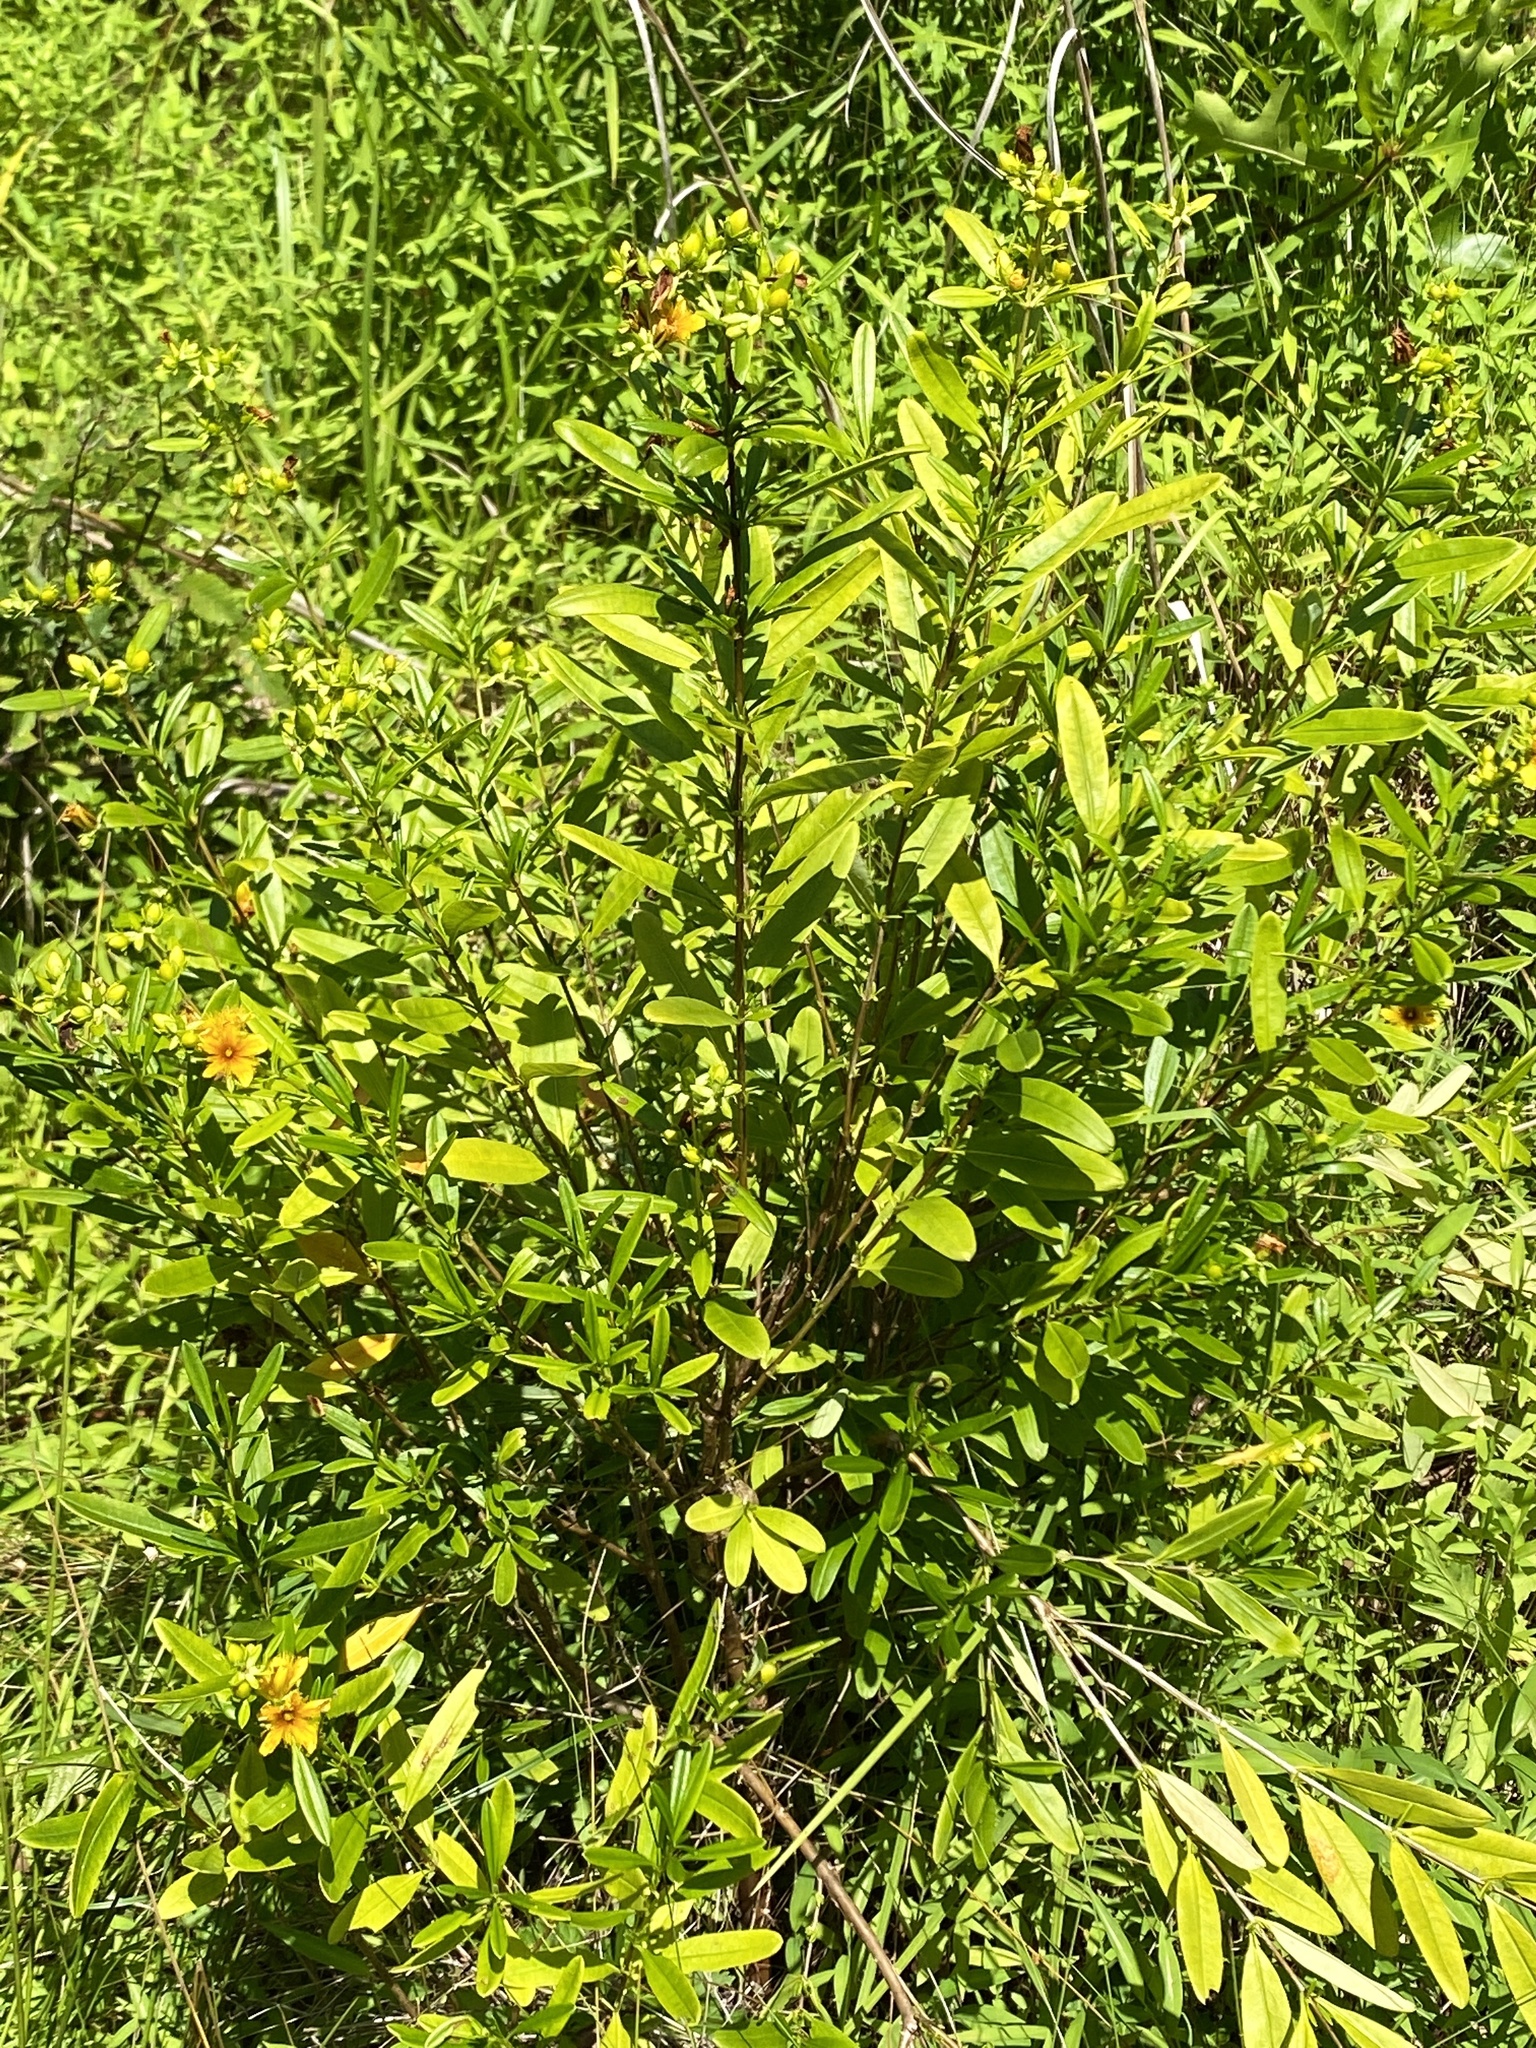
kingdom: Plantae
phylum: Tracheophyta
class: Magnoliopsida
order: Malpighiales
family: Hypericaceae
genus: Hypericum
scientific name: Hypericum prolificum
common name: Shrubby st. john's-wort
